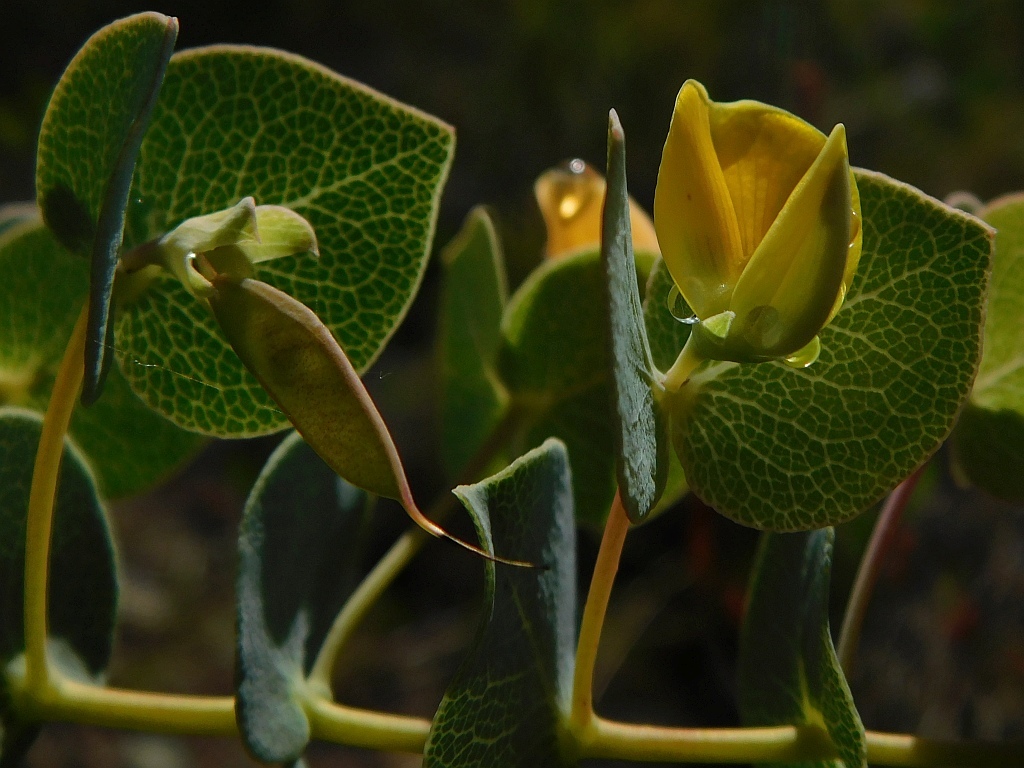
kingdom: Plantae
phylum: Tracheophyta
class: Magnoliopsida
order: Fabales
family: Fabaceae
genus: Rafnia
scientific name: Rafnia acuminata
